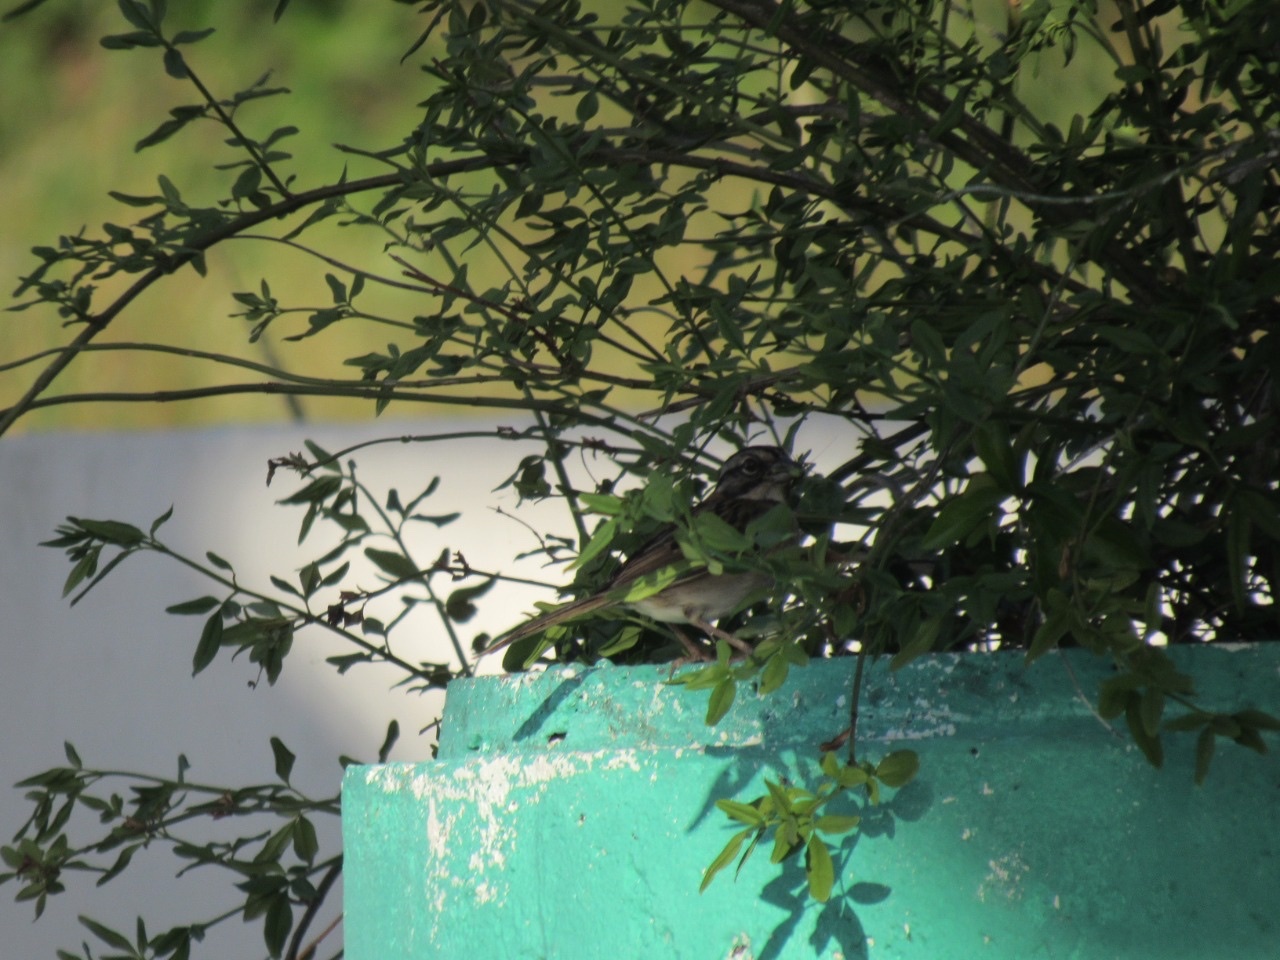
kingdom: Animalia
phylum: Chordata
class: Aves
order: Passeriformes
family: Passerellidae
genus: Zonotrichia
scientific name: Zonotrichia capensis
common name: Rufous-collared sparrow
